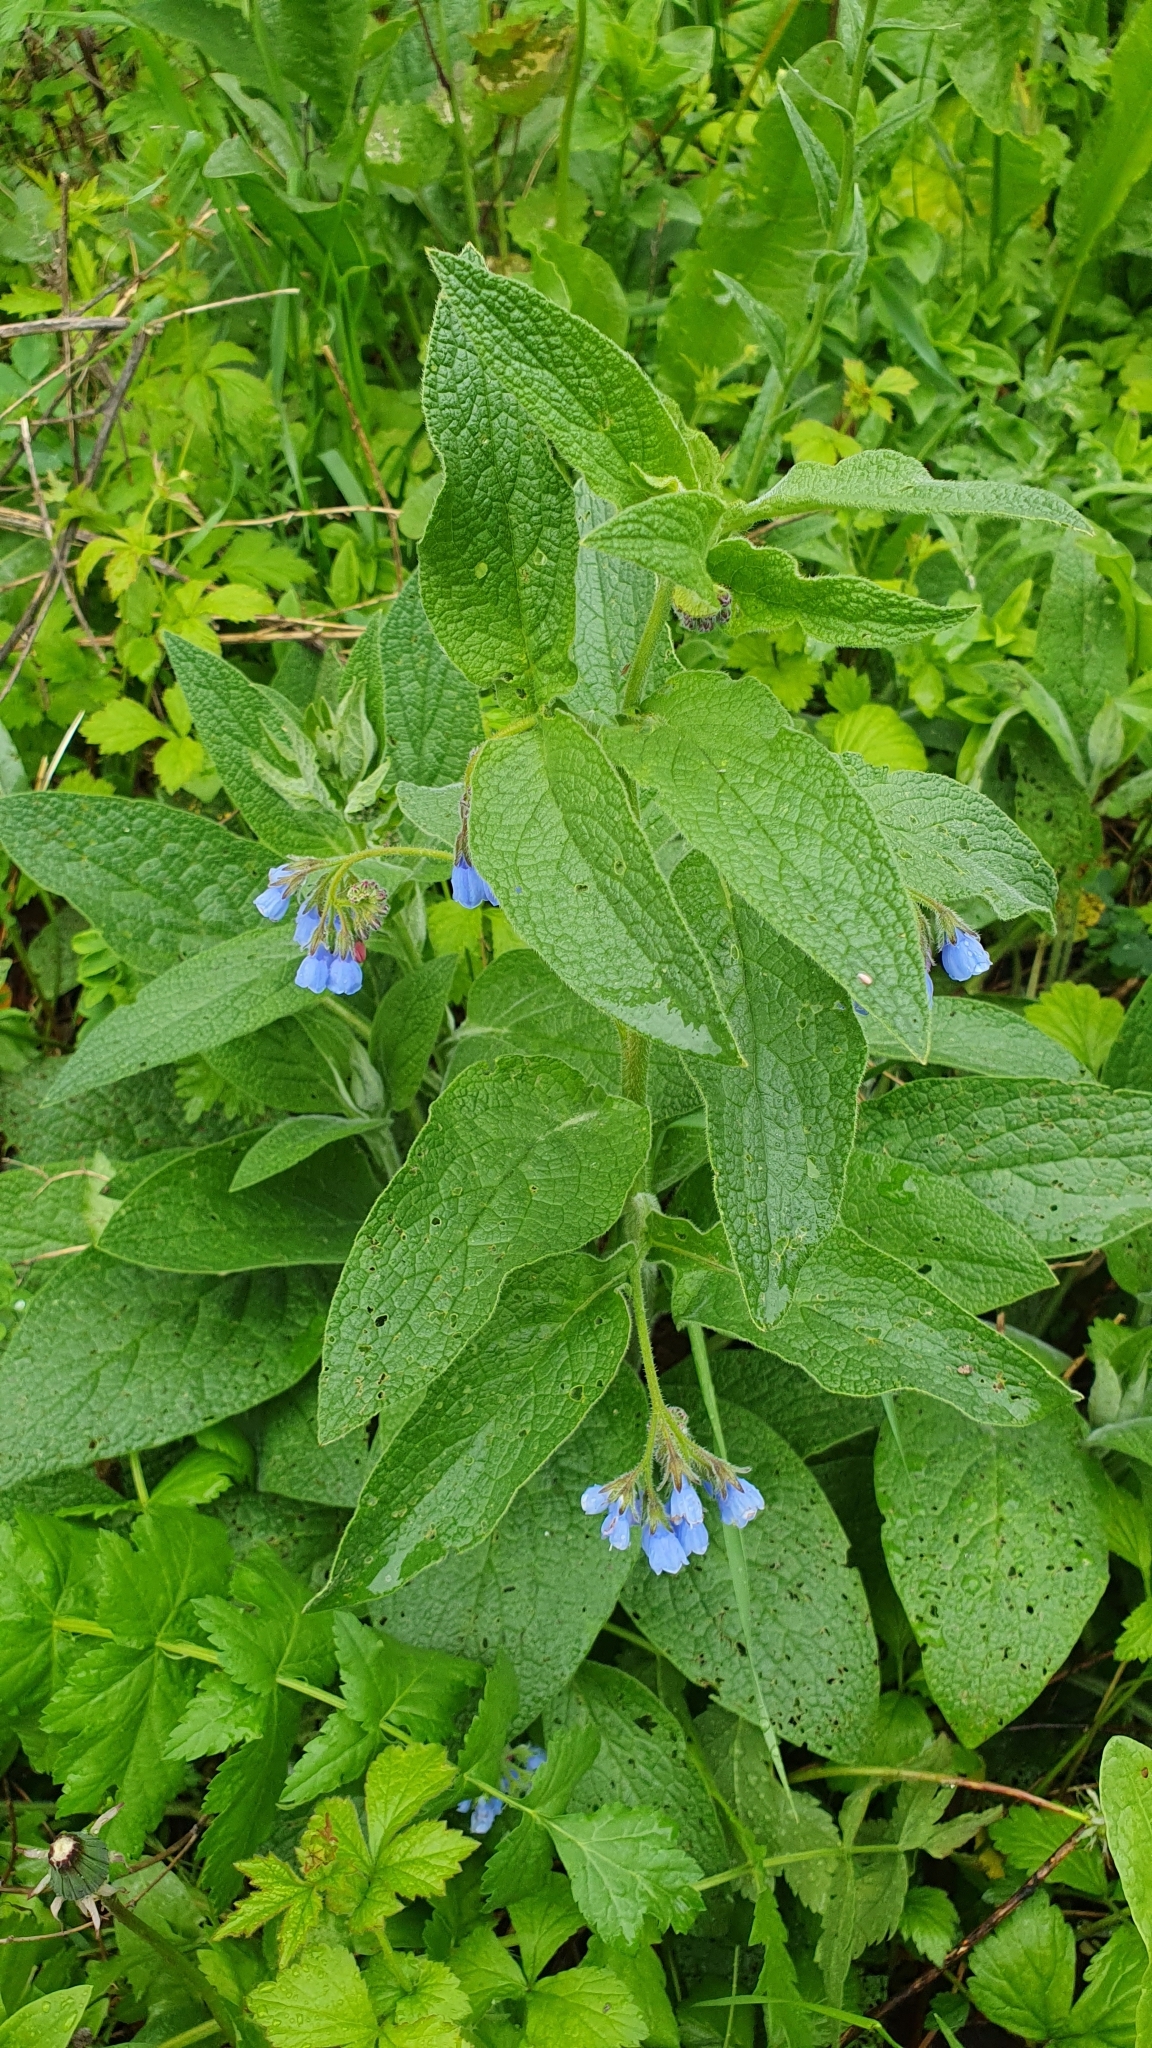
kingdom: Plantae
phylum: Tracheophyta
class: Magnoliopsida
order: Boraginales
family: Boraginaceae
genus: Symphytum
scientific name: Symphytum caucasicum
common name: Caucasian comfrey
